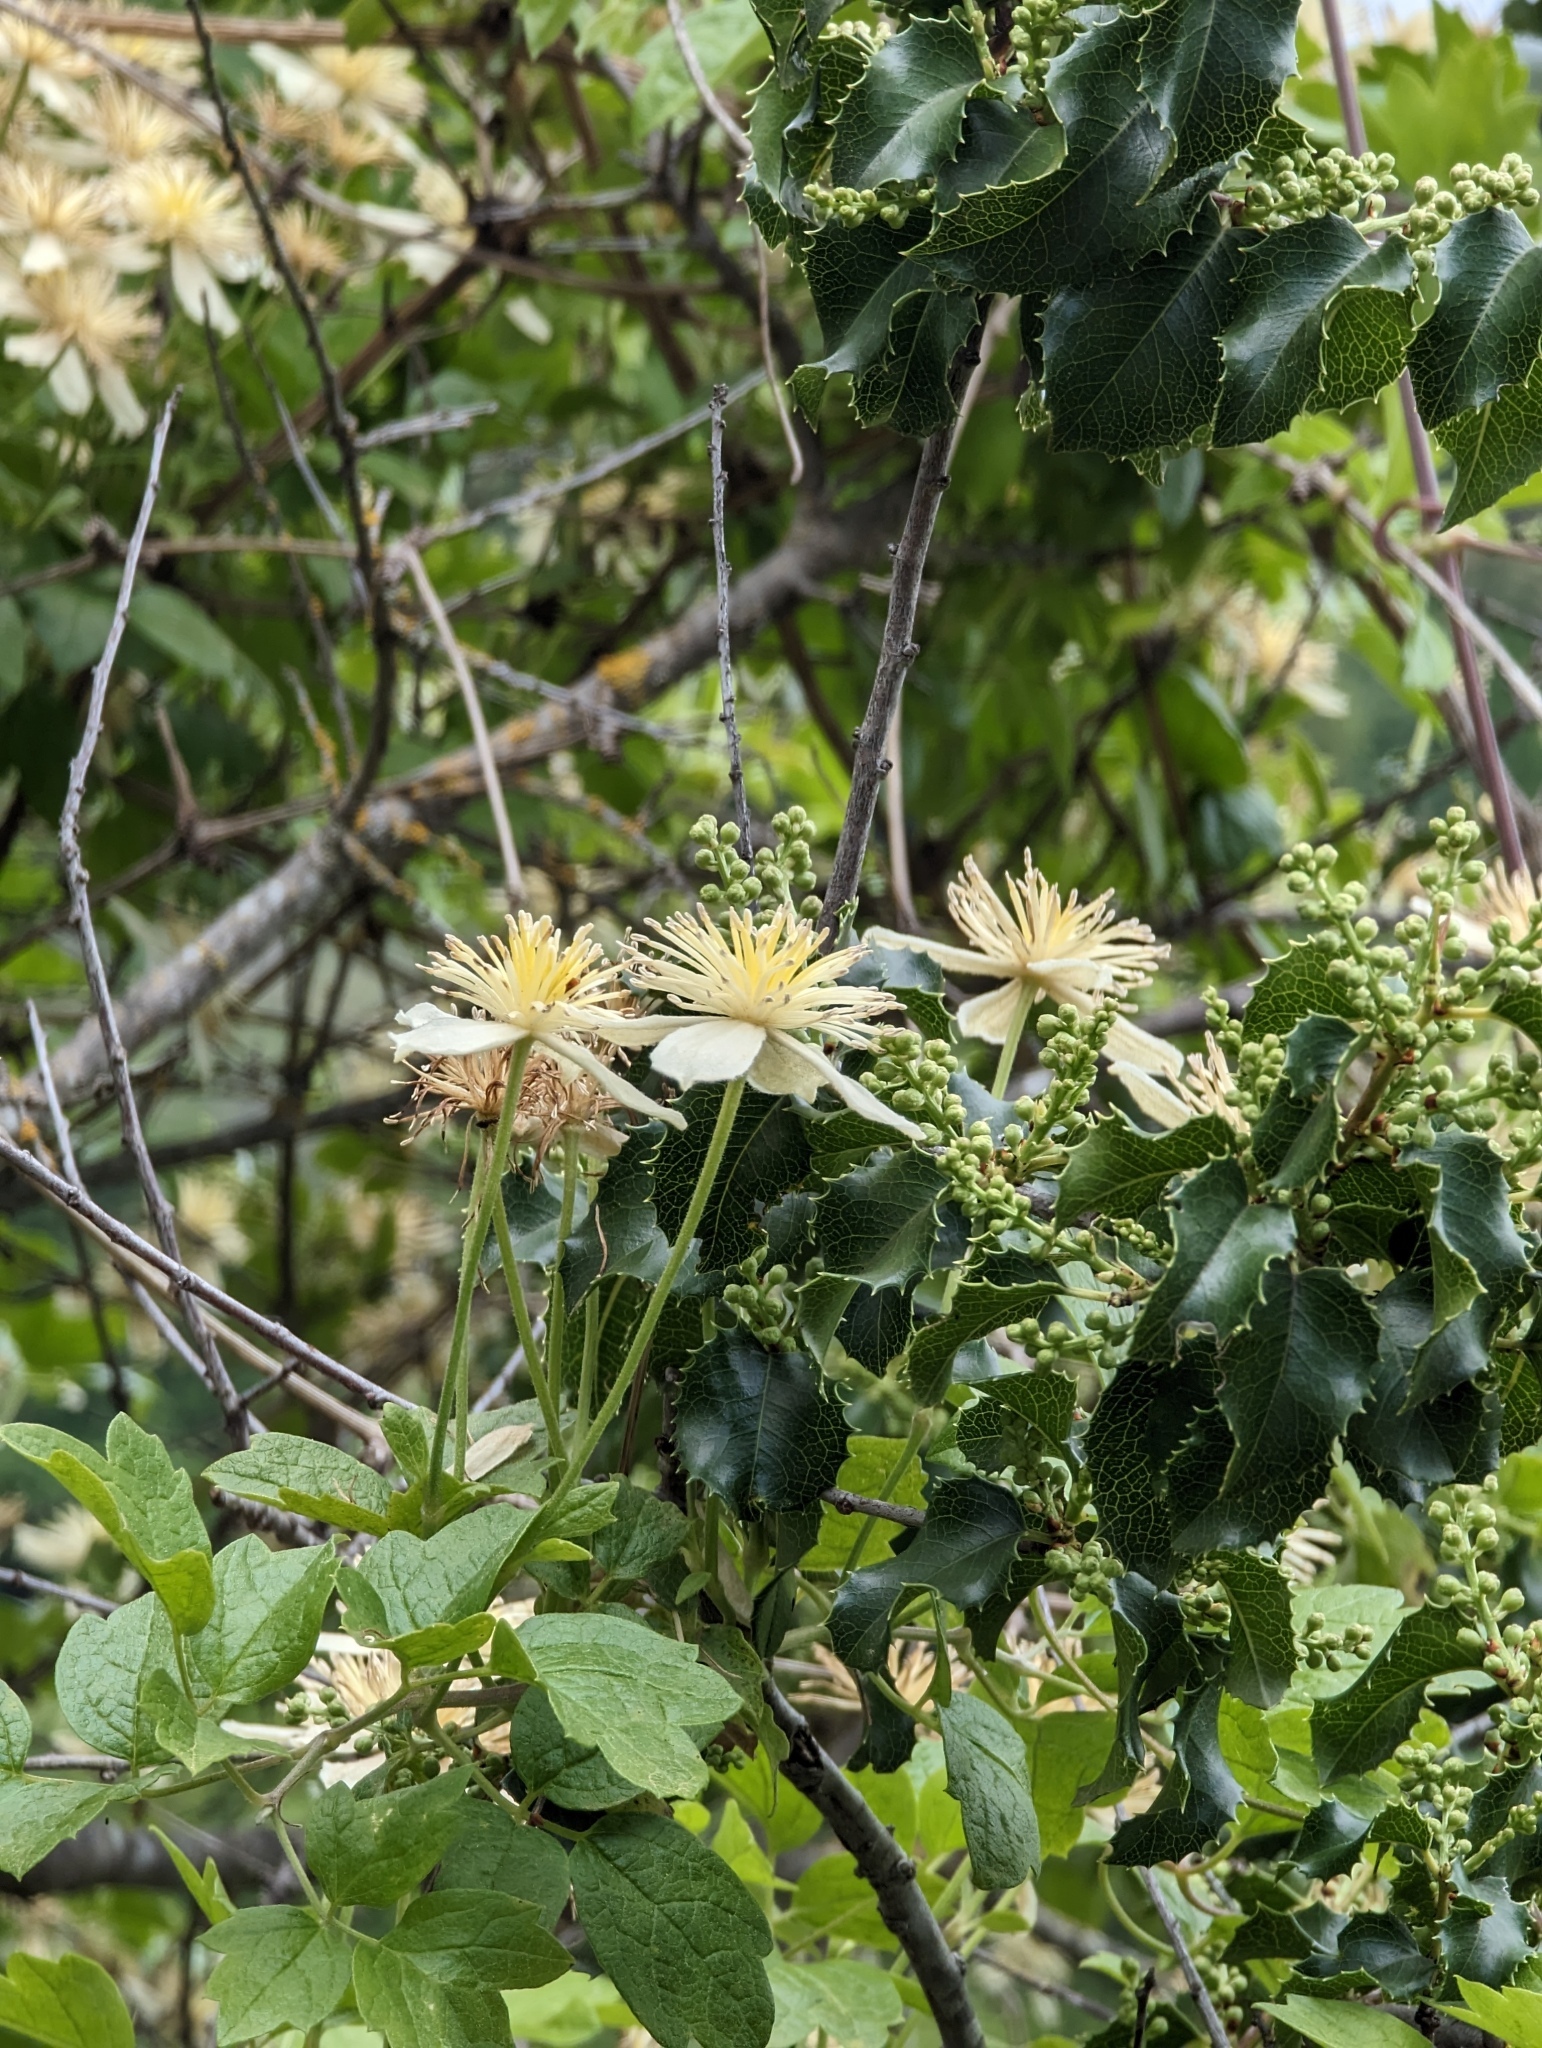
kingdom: Plantae
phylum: Tracheophyta
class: Magnoliopsida
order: Ranunculales
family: Ranunculaceae
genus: Clematis
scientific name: Clematis lasiantha
